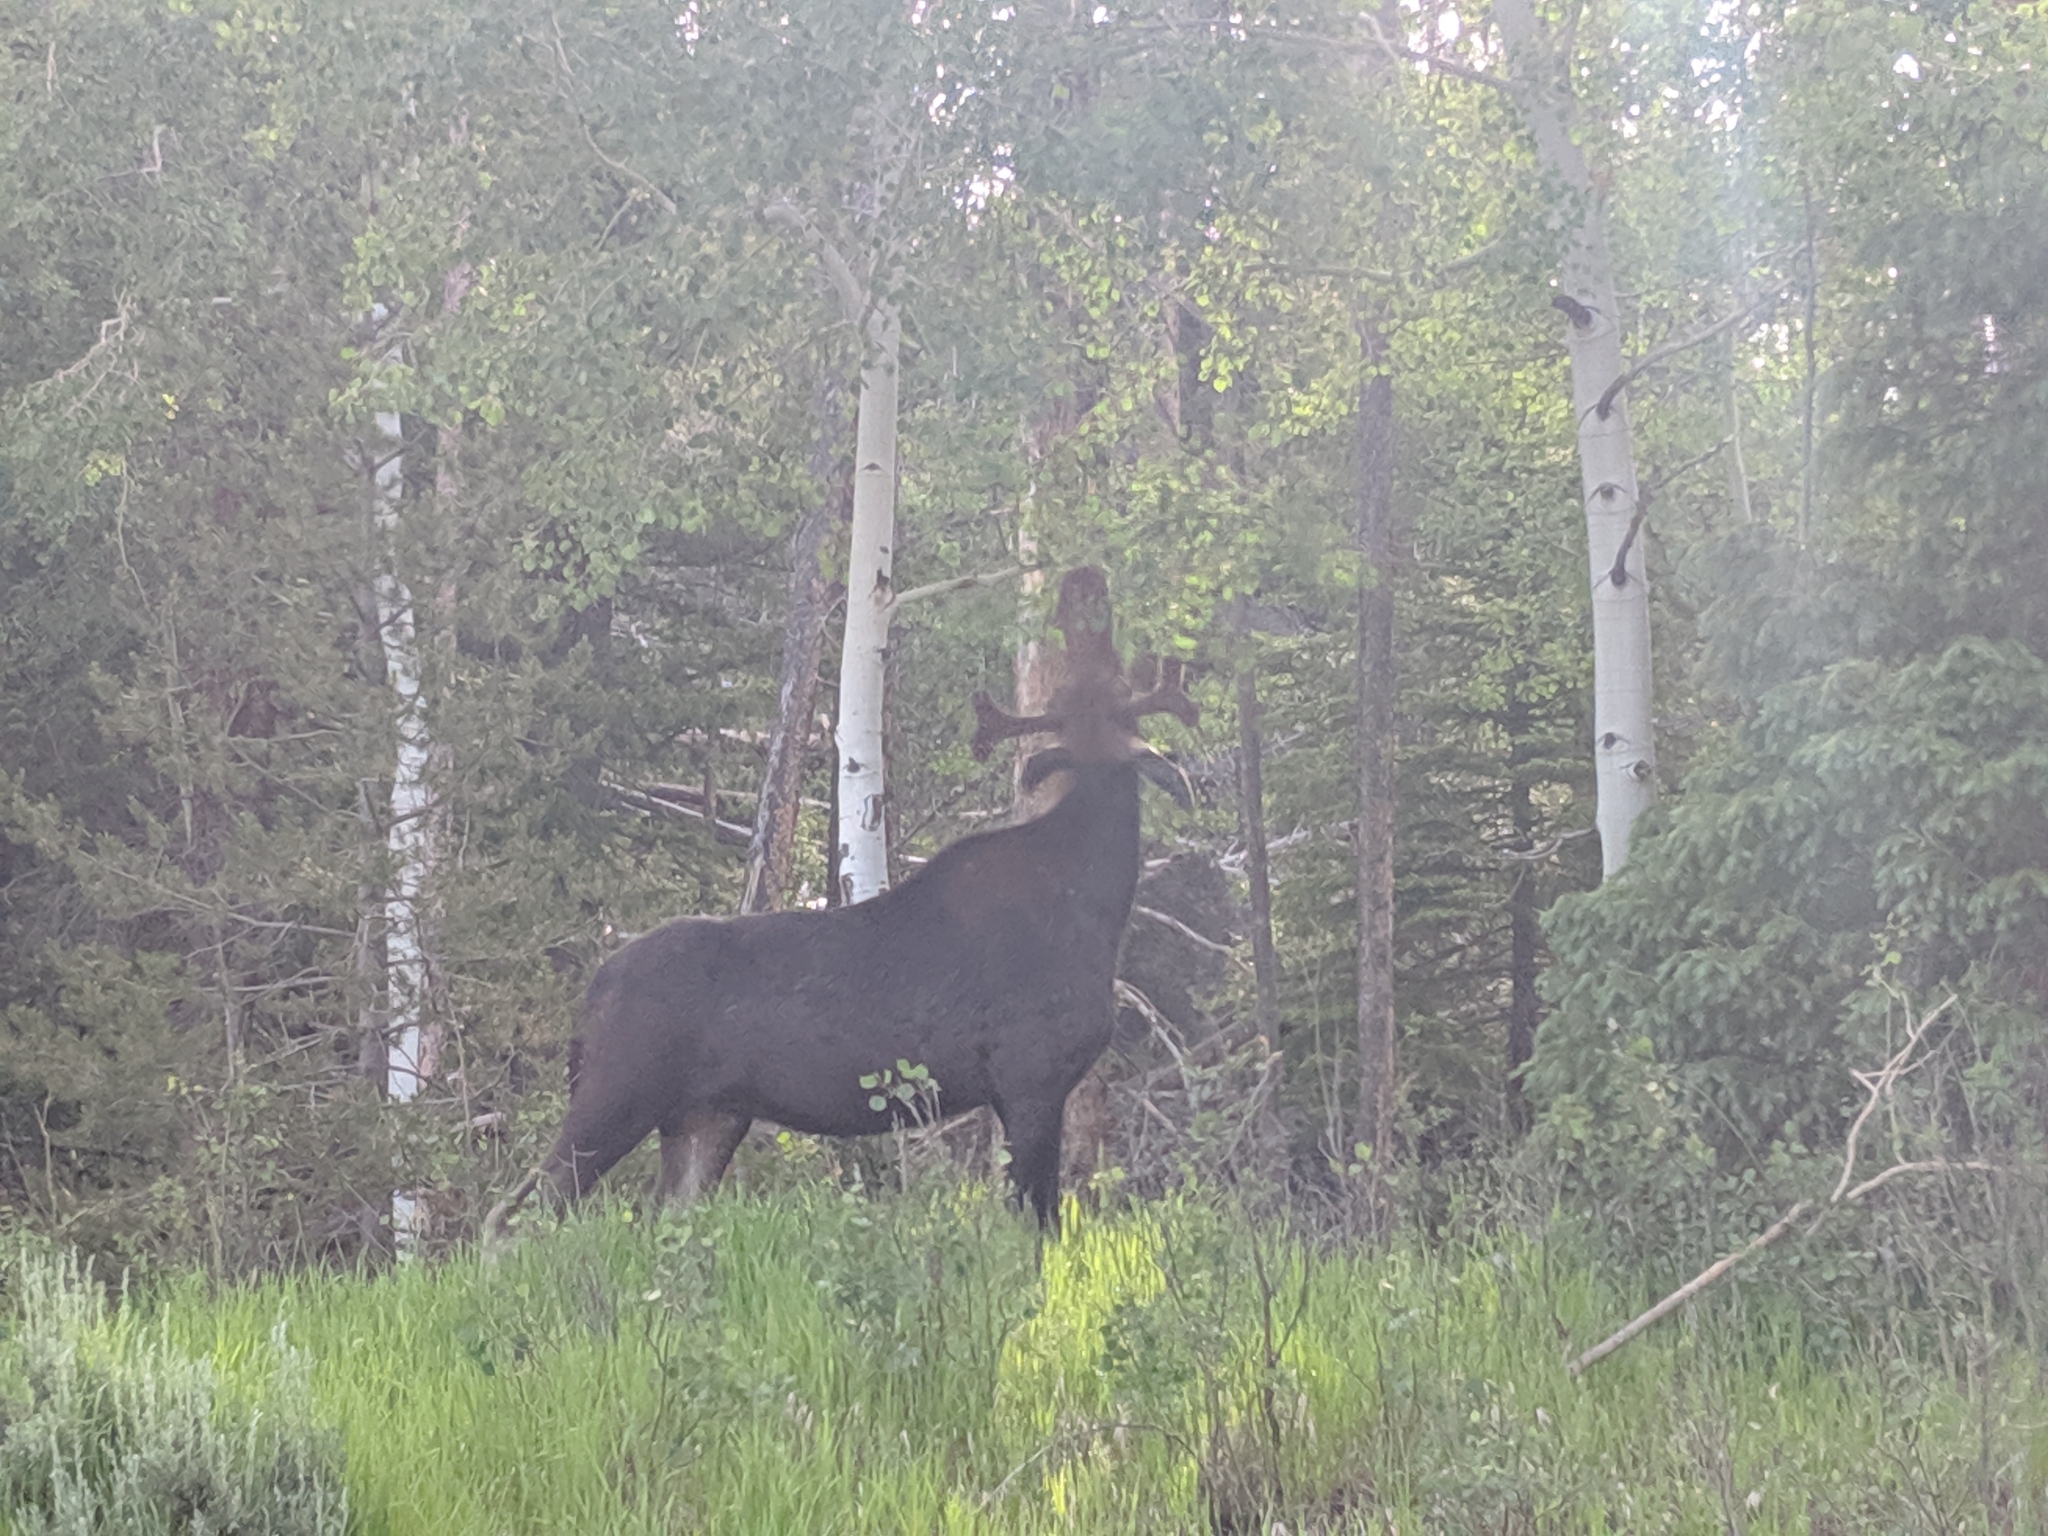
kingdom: Animalia
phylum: Chordata
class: Mammalia
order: Artiodactyla
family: Cervidae
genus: Alces
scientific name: Alces alces
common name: Moose
